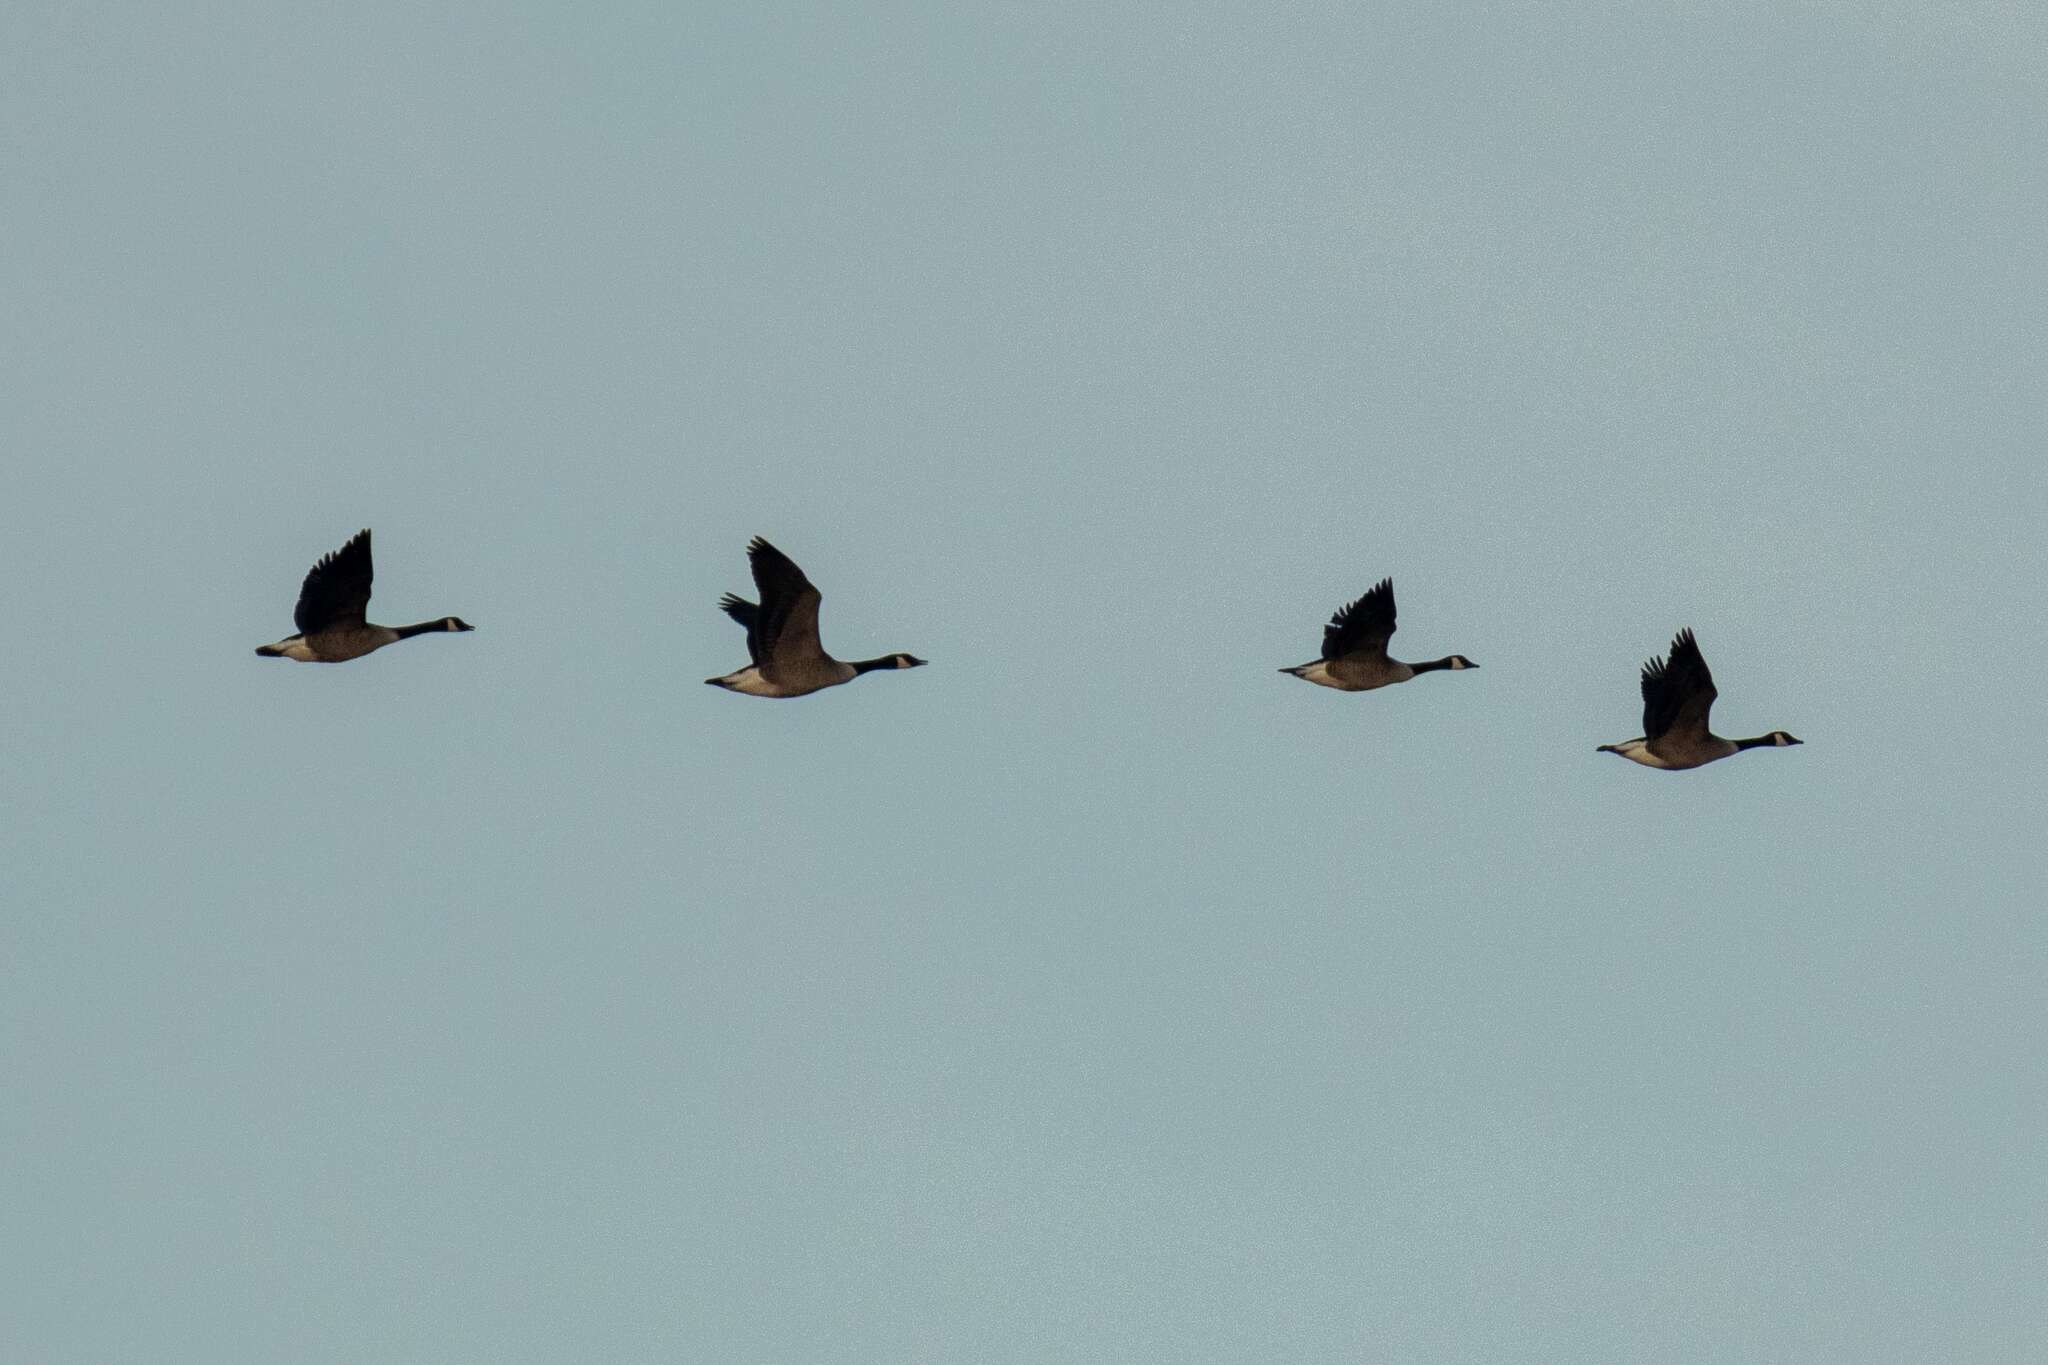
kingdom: Animalia
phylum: Chordata
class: Aves
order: Anseriformes
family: Anatidae
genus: Branta
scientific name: Branta canadensis
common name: Canada goose
